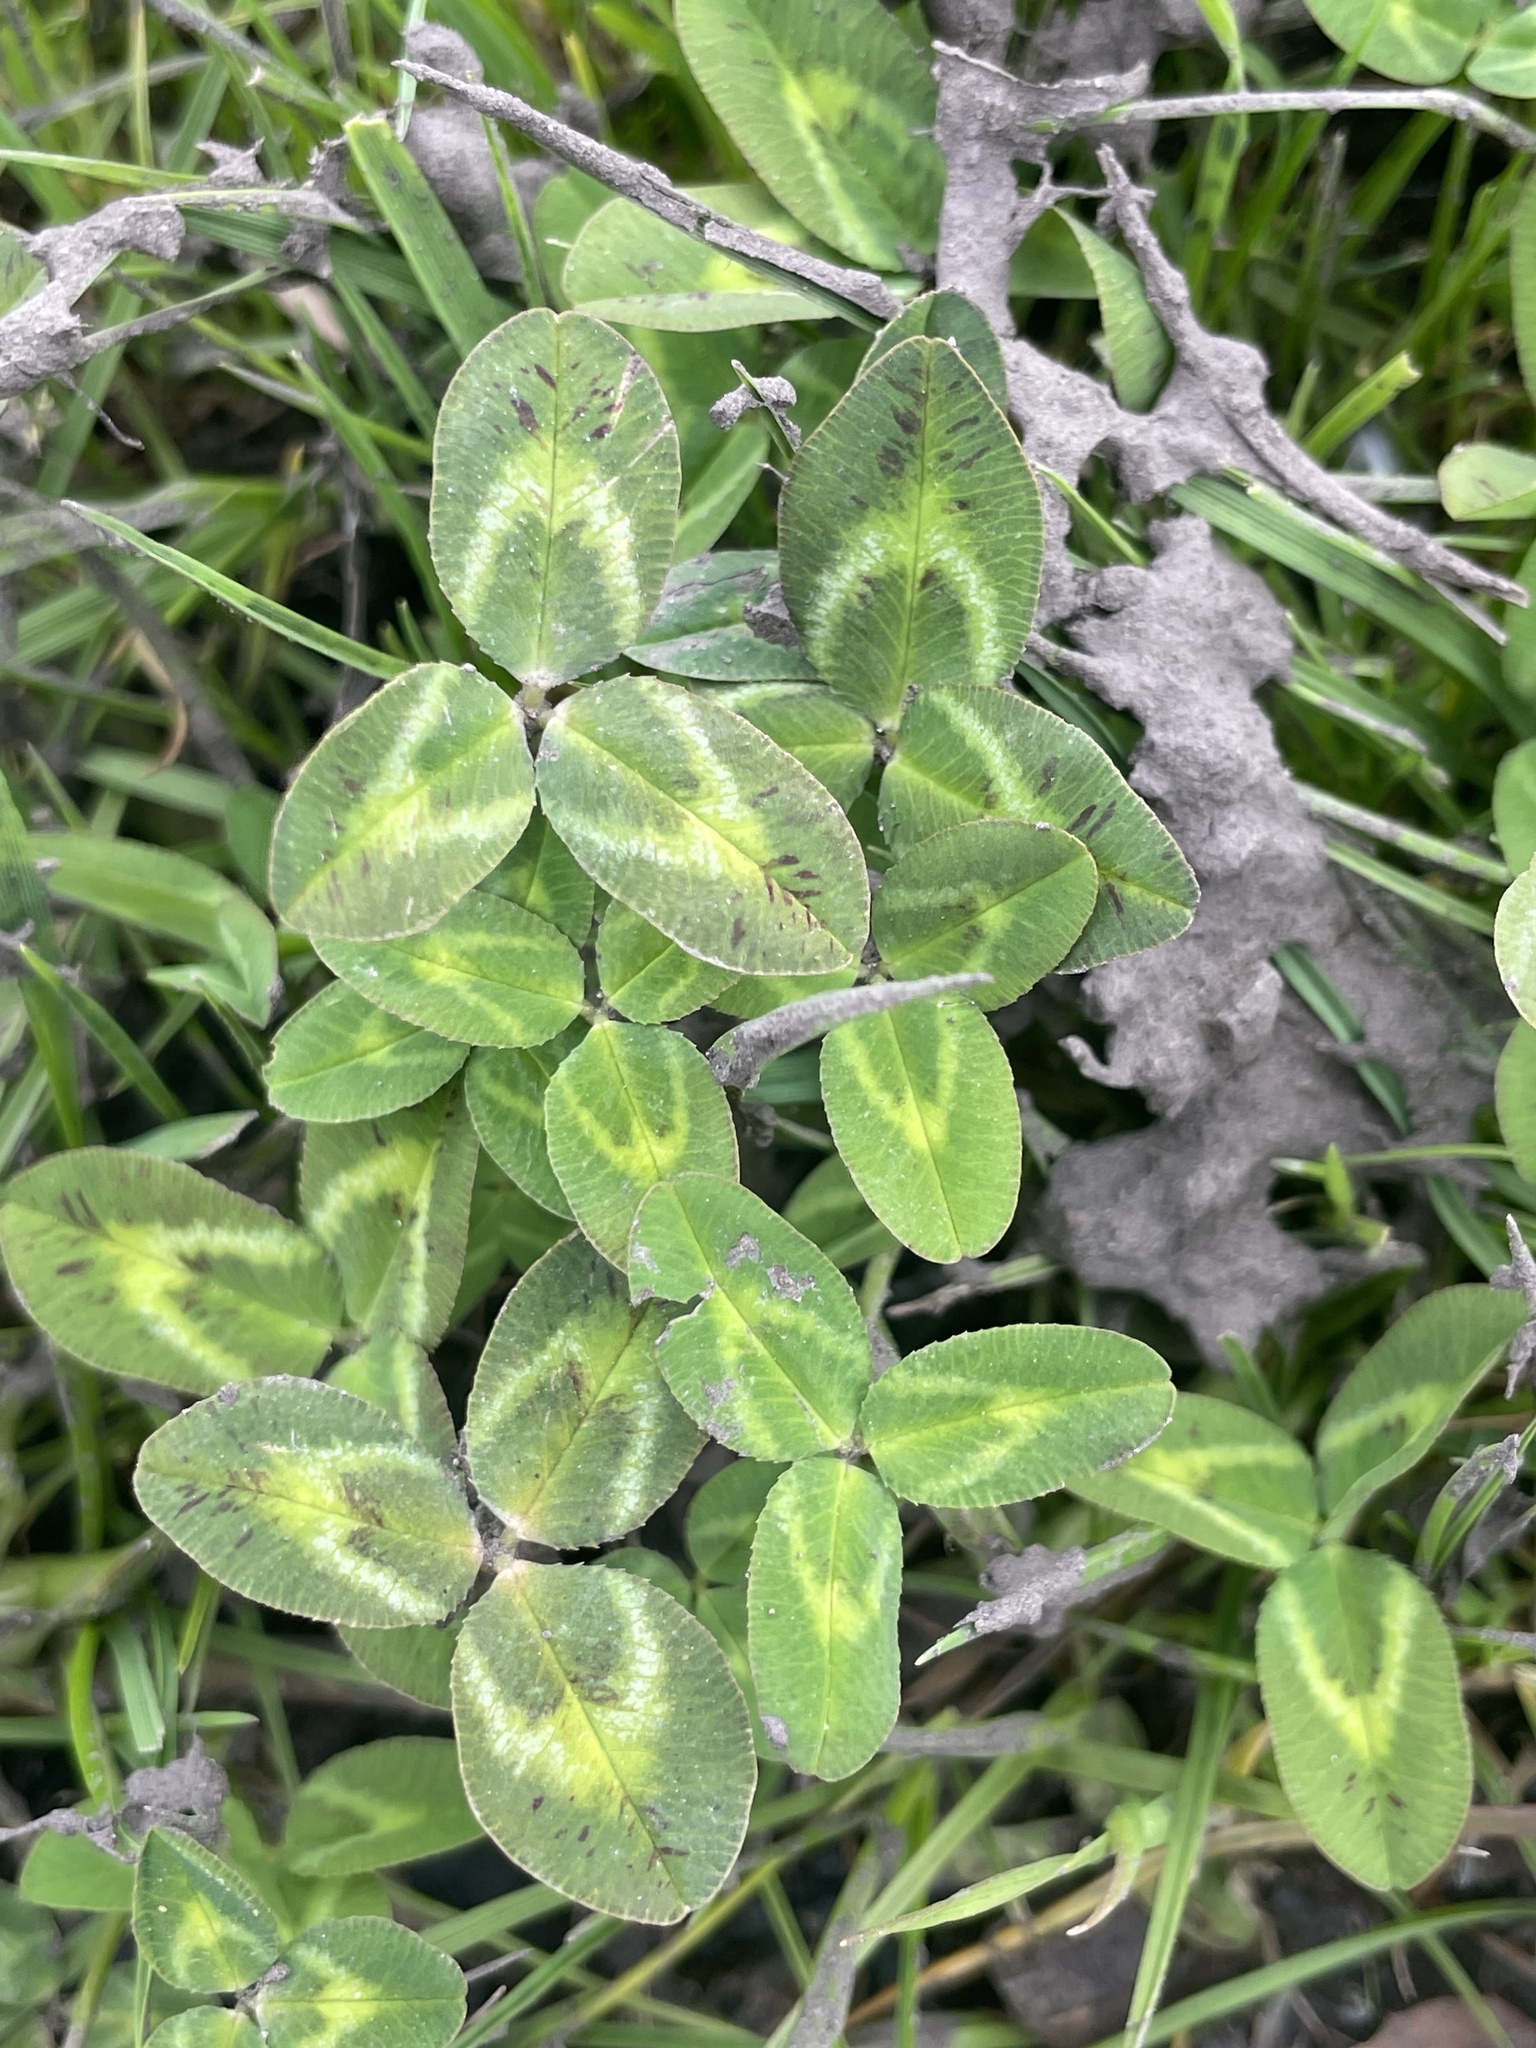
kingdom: Plantae
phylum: Tracheophyta
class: Magnoliopsida
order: Fabales
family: Fabaceae
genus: Trifolium
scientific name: Trifolium repens
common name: White clover
